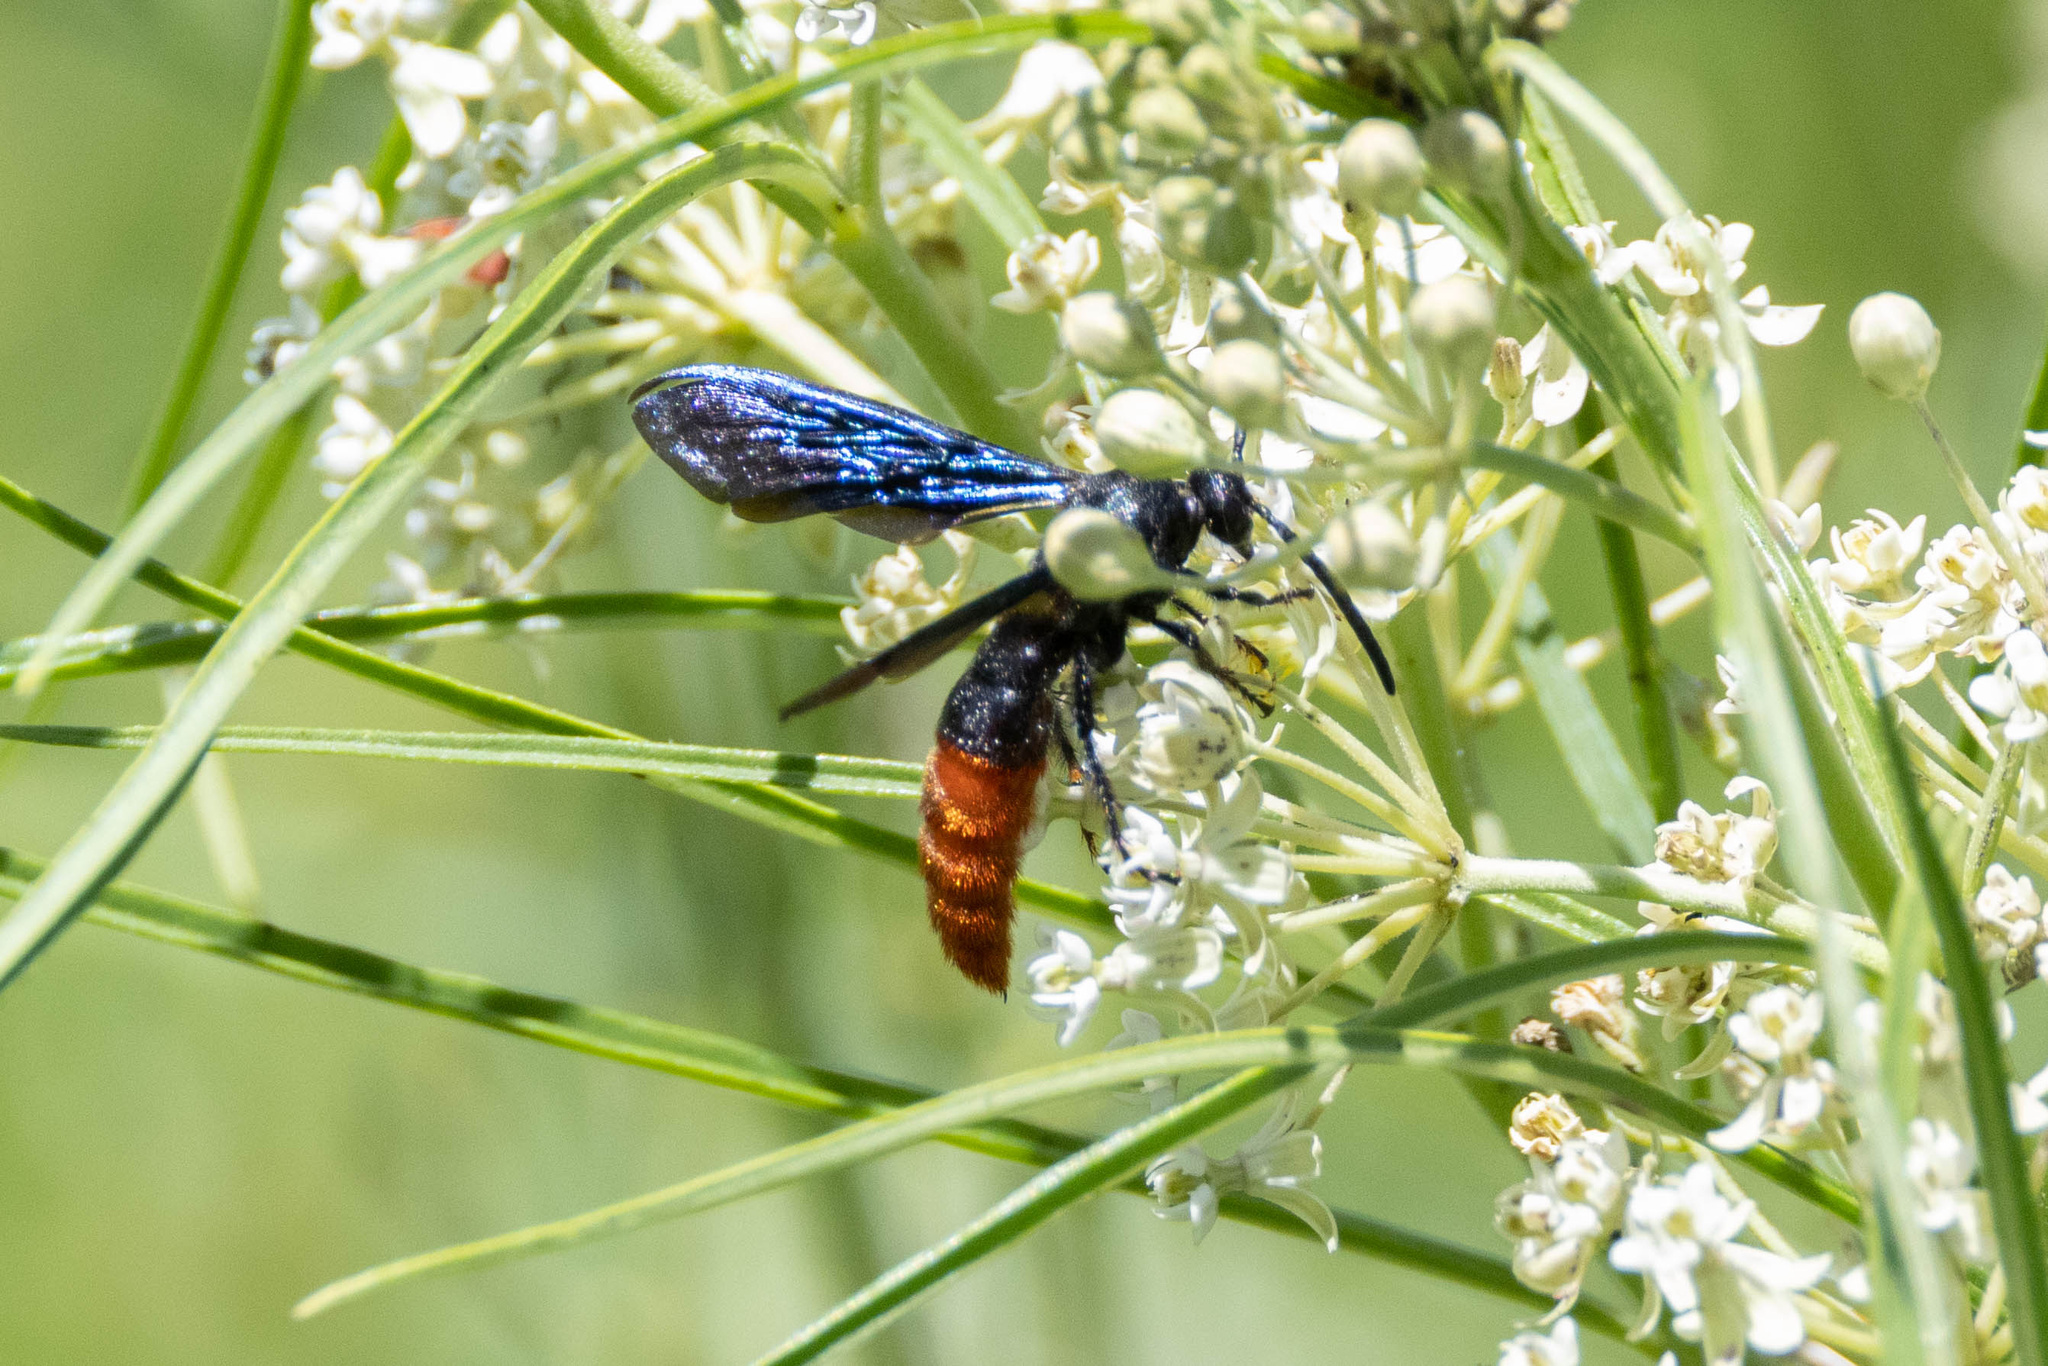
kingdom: Animalia
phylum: Arthropoda
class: Insecta
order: Hymenoptera
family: Scoliidae
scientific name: Scoliidae
